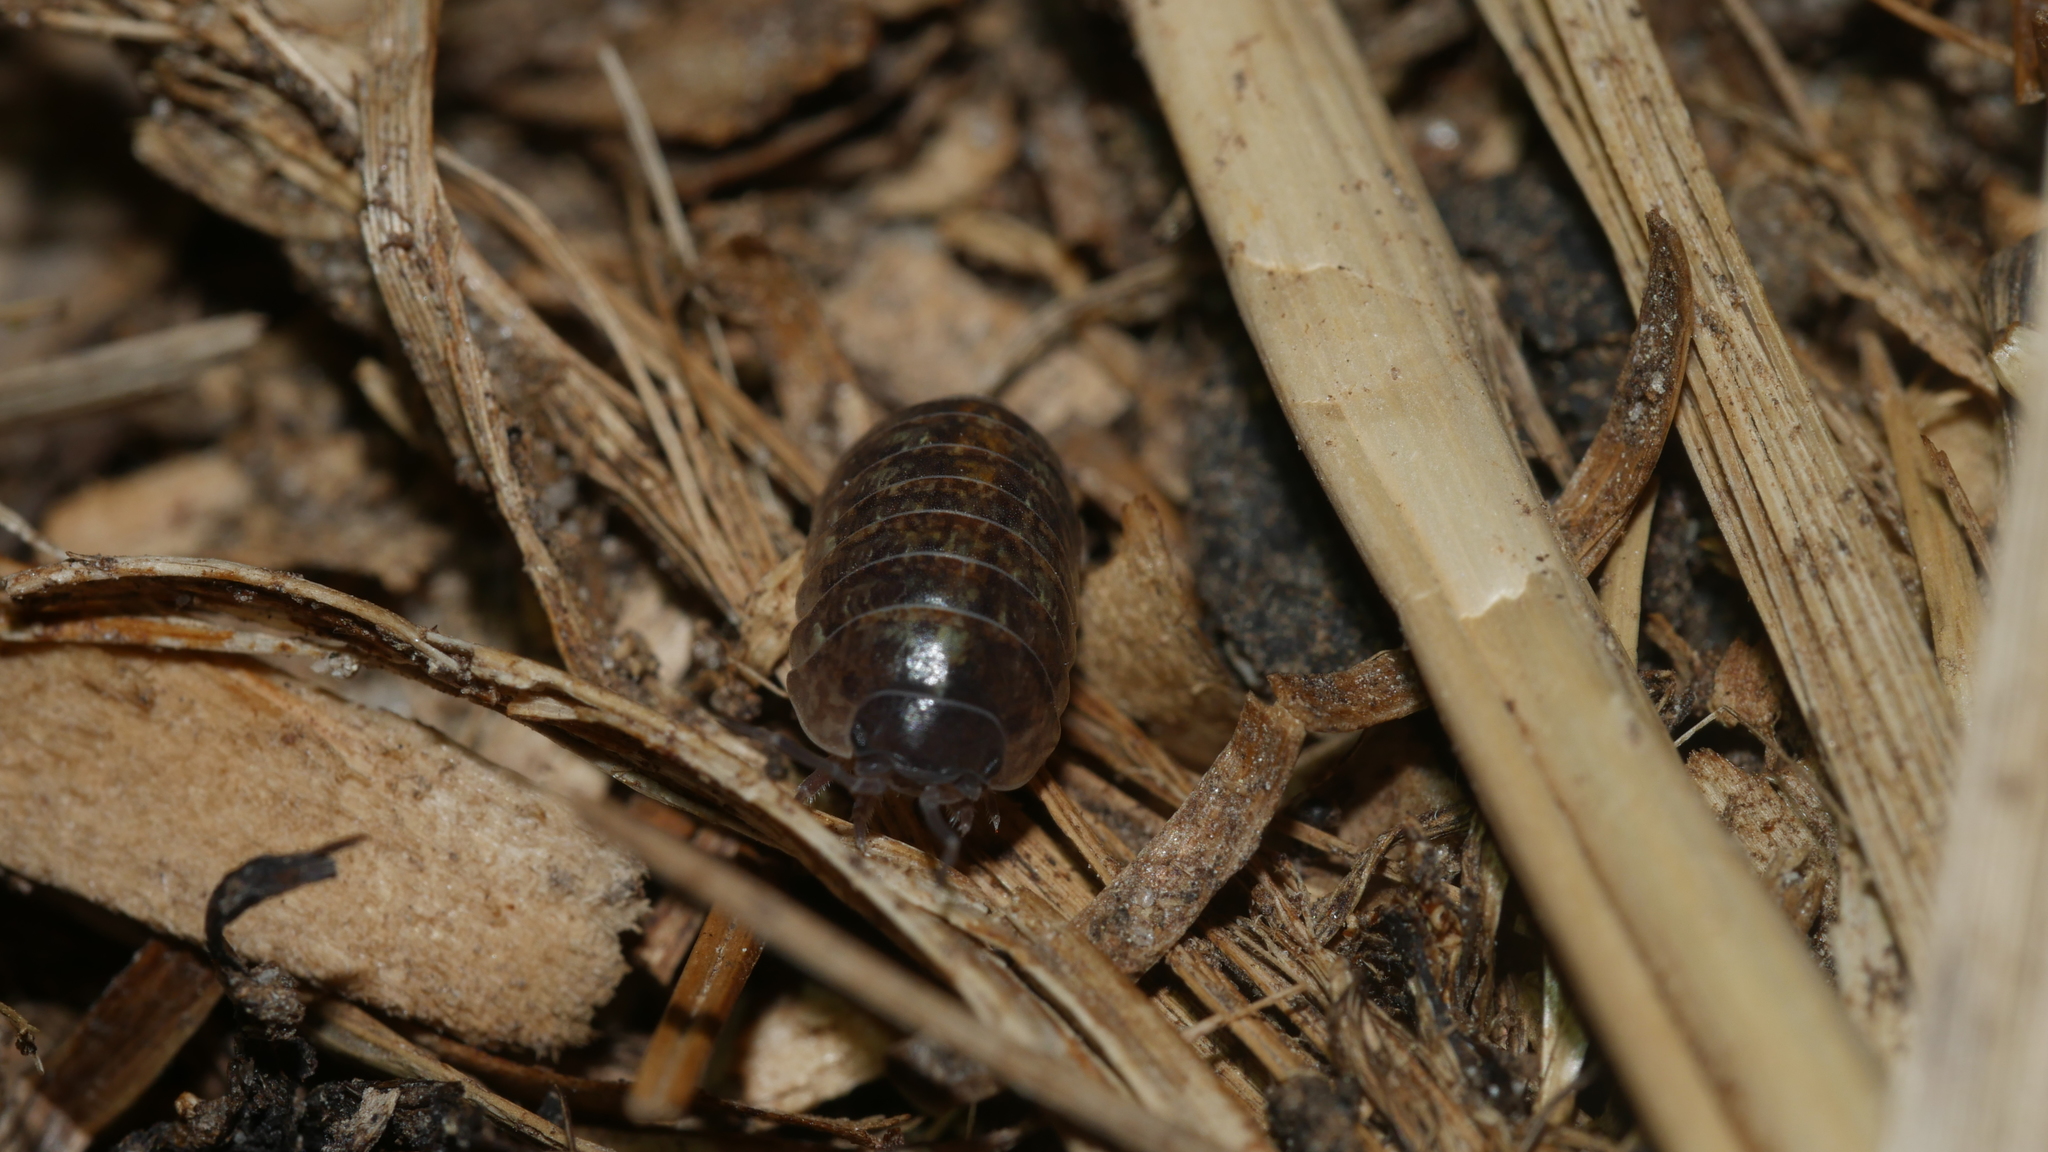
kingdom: Animalia
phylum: Arthropoda
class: Malacostraca
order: Isopoda
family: Armadillidiidae
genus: Armadillidium
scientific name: Armadillidium vulgare
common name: Common pill woodlouse
